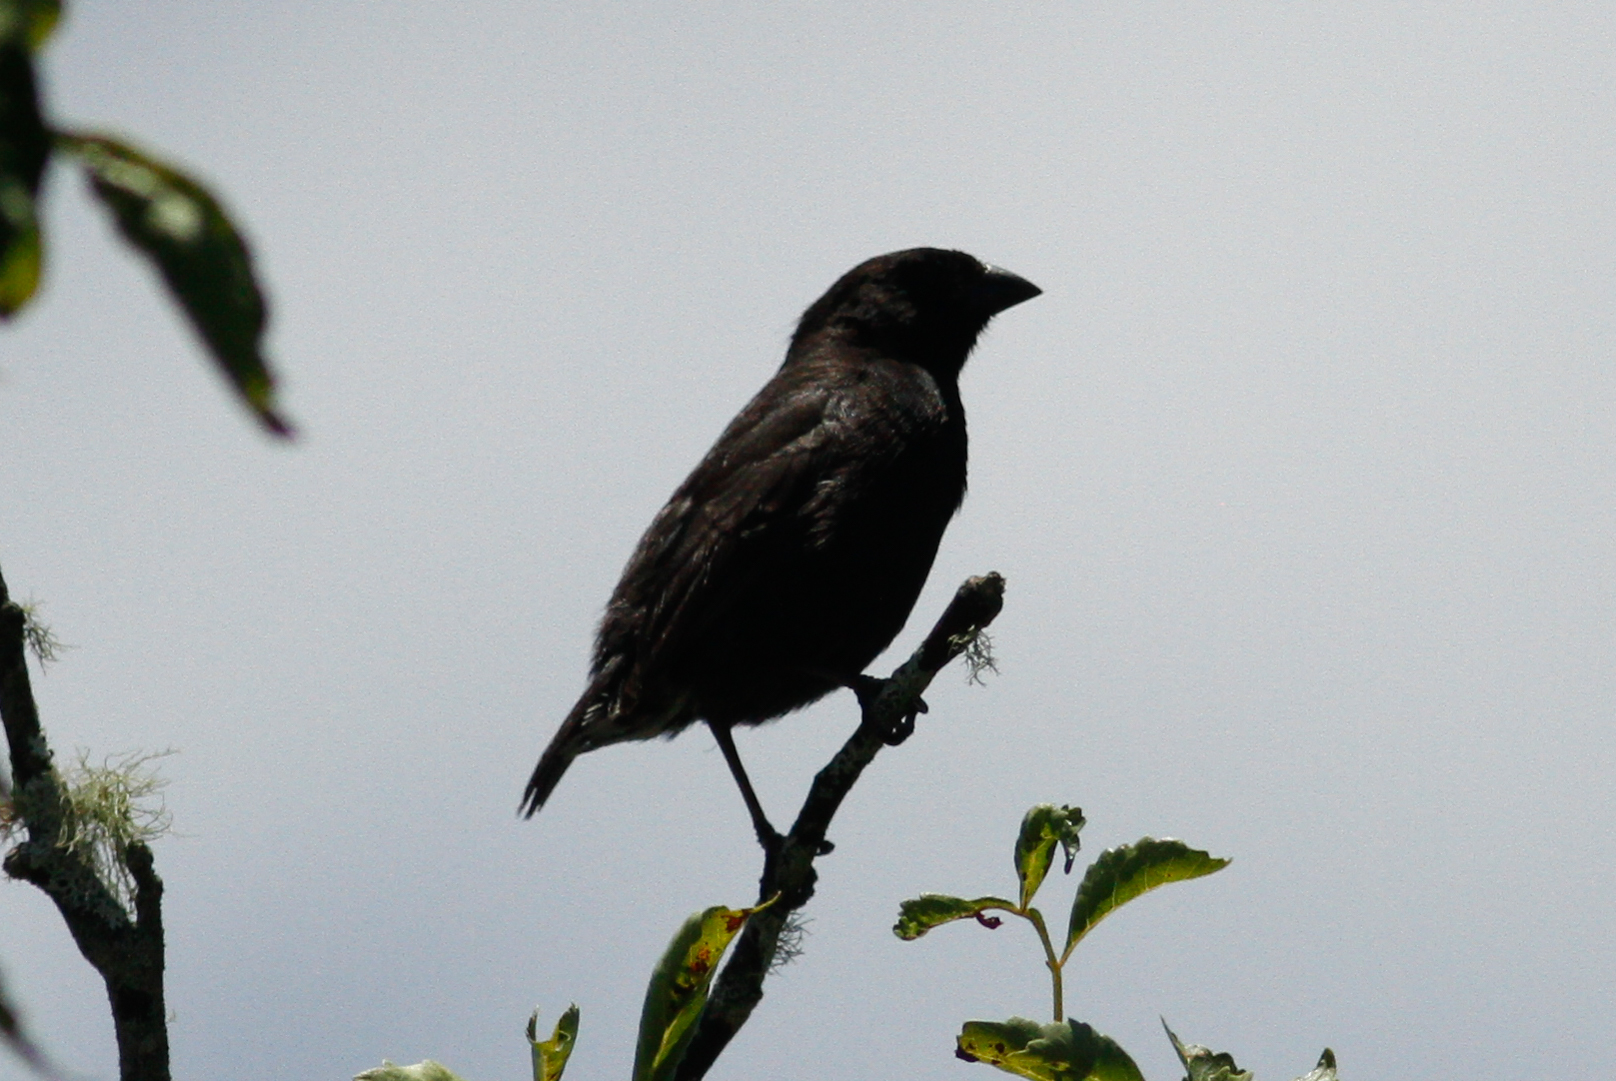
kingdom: Animalia
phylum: Chordata
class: Aves
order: Passeriformes
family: Thraupidae
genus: Geospiza
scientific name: Geospiza fuliginosa
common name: Small ground finch
